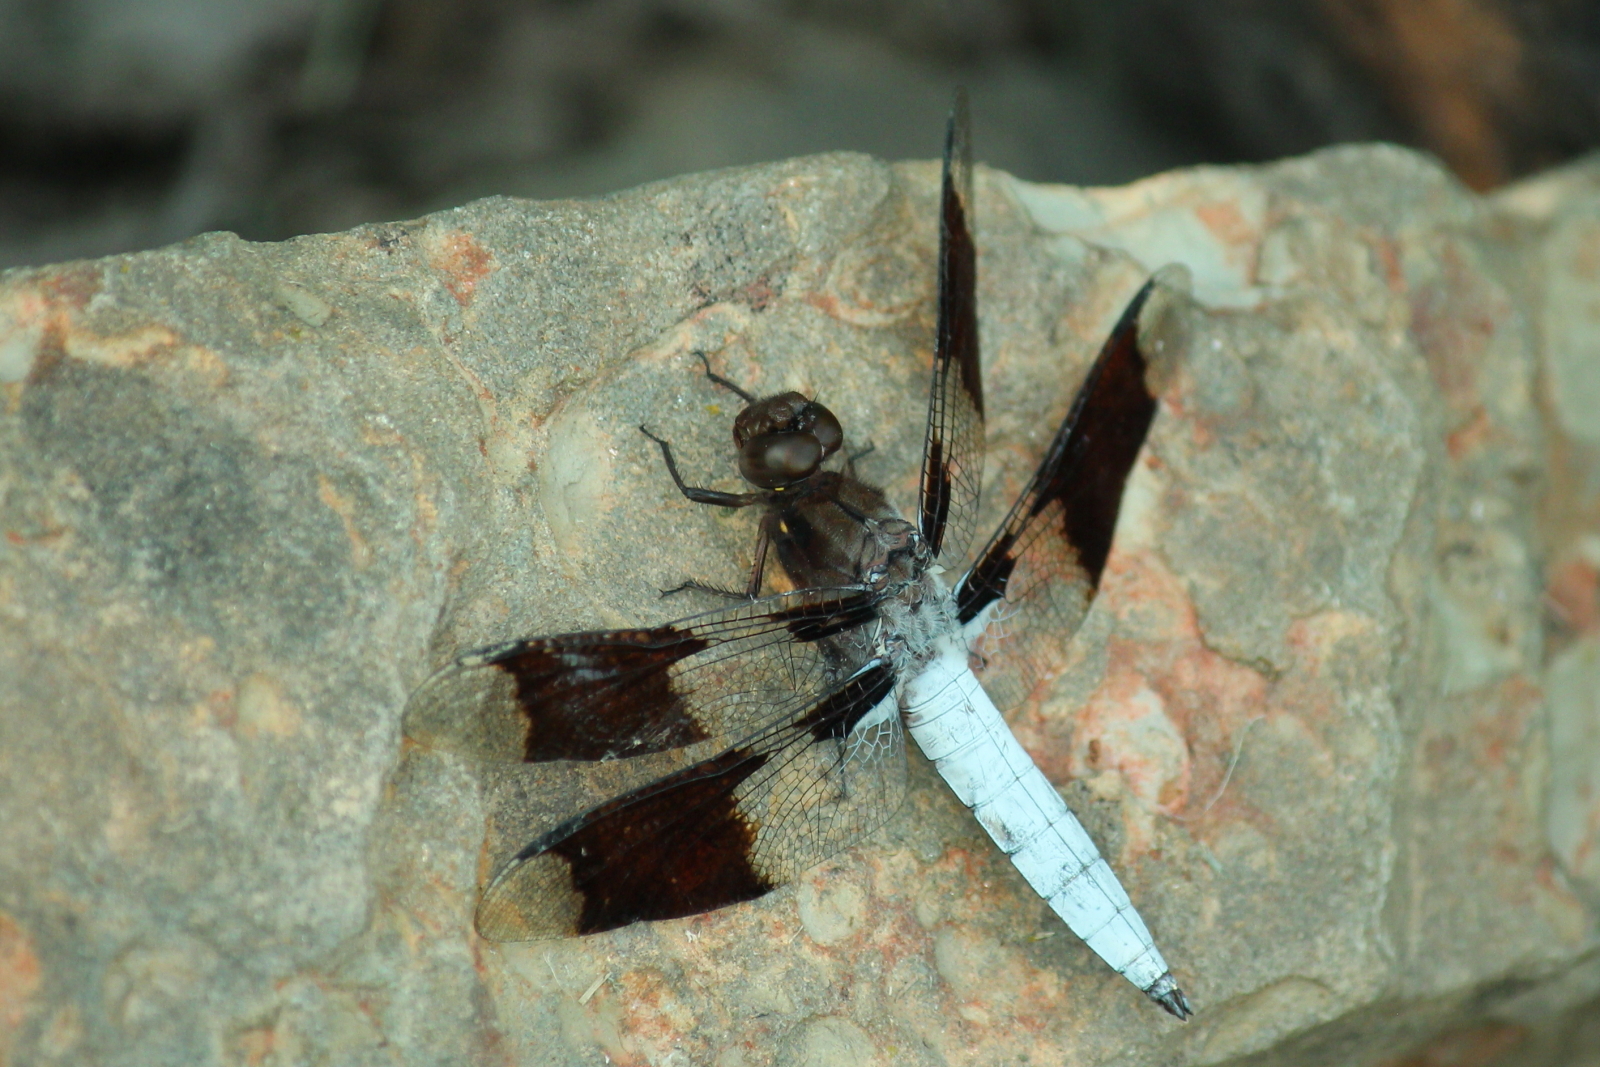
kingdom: Animalia
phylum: Arthropoda
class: Insecta
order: Odonata
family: Libellulidae
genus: Plathemis
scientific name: Plathemis lydia
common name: Common whitetail
